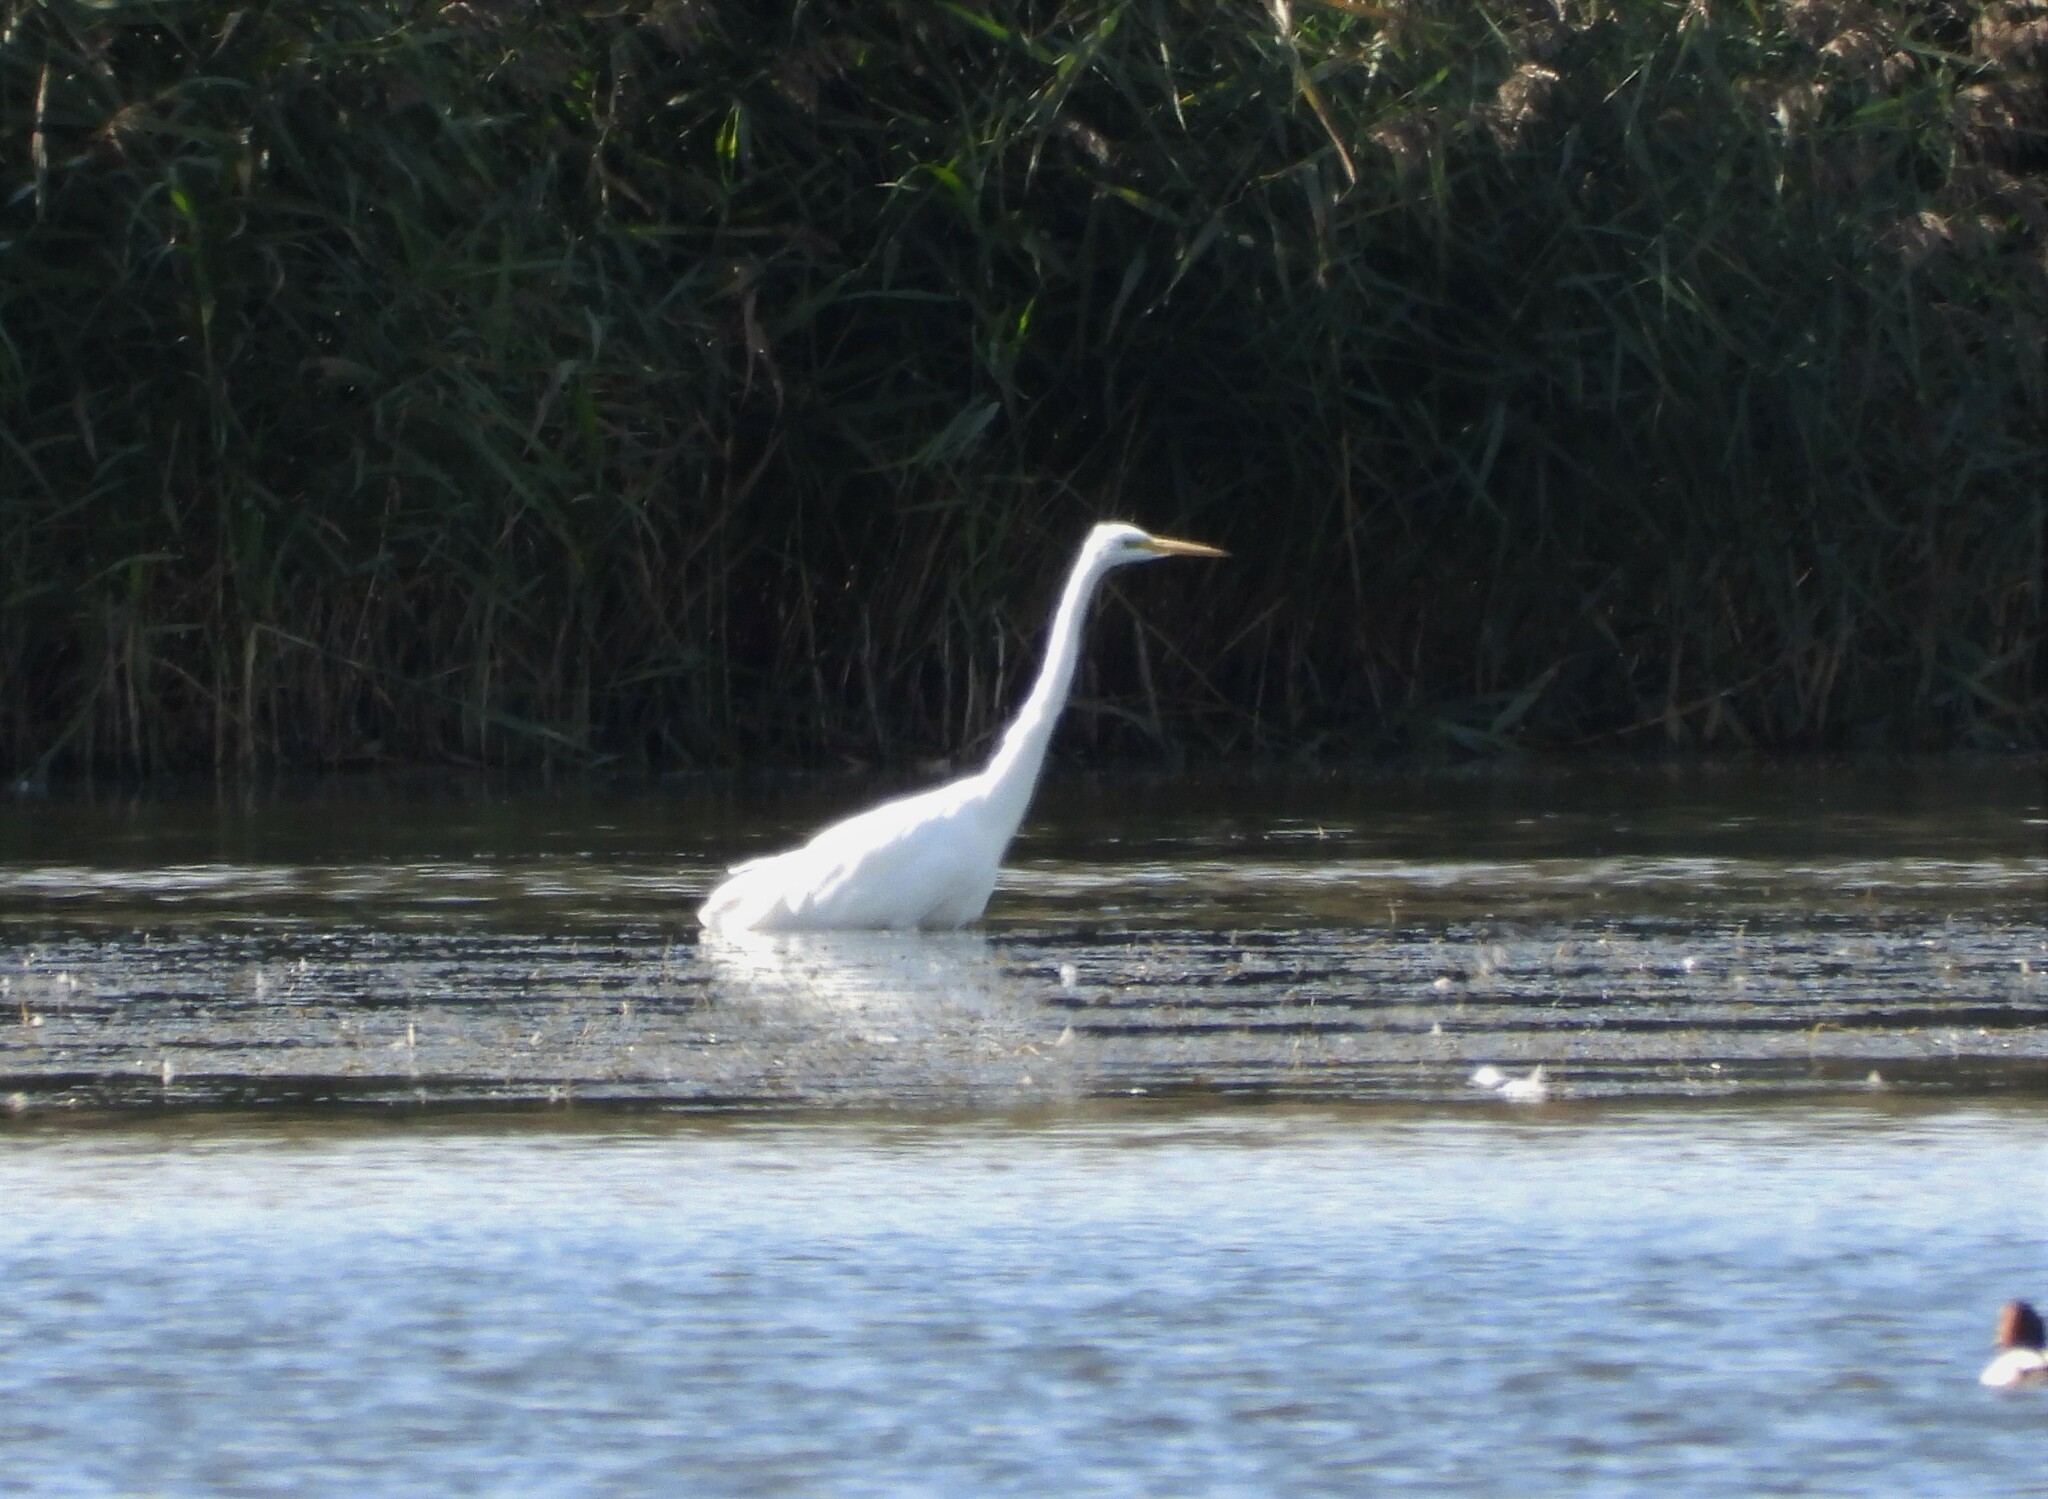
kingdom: Animalia
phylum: Chordata
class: Aves
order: Pelecaniformes
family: Ardeidae
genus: Ardea
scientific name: Ardea alba
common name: Great egret
